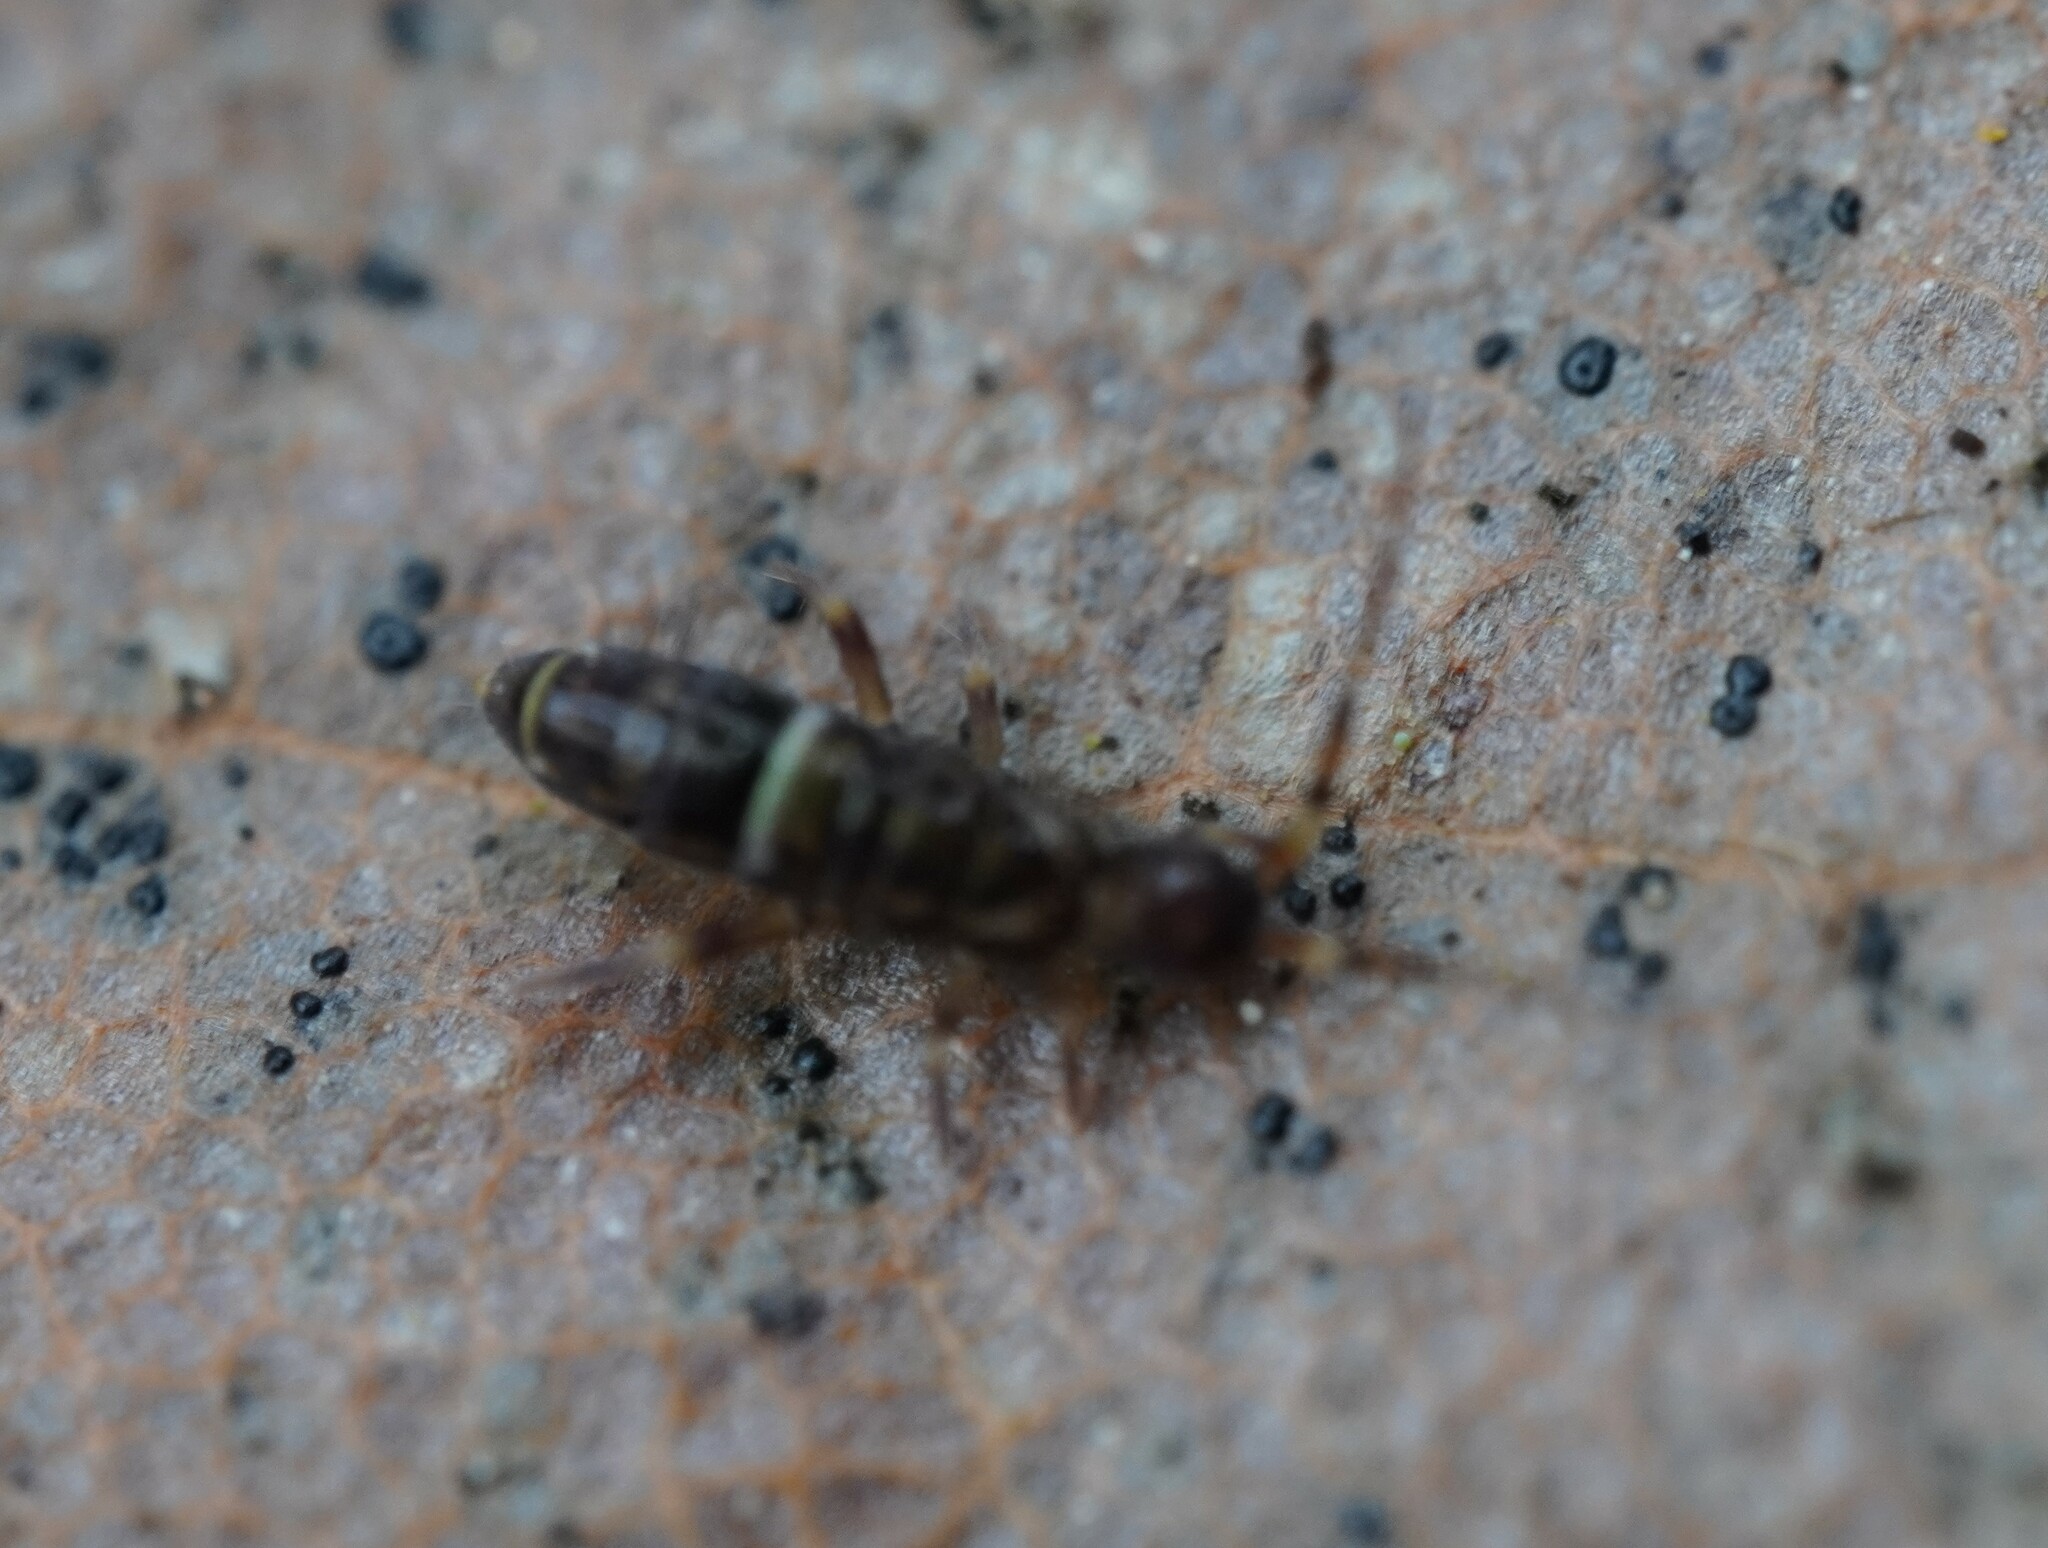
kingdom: Animalia
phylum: Arthropoda
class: Collembola
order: Entomobryomorpha
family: Orchesellidae
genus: Orchesella
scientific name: Orchesella cincta
